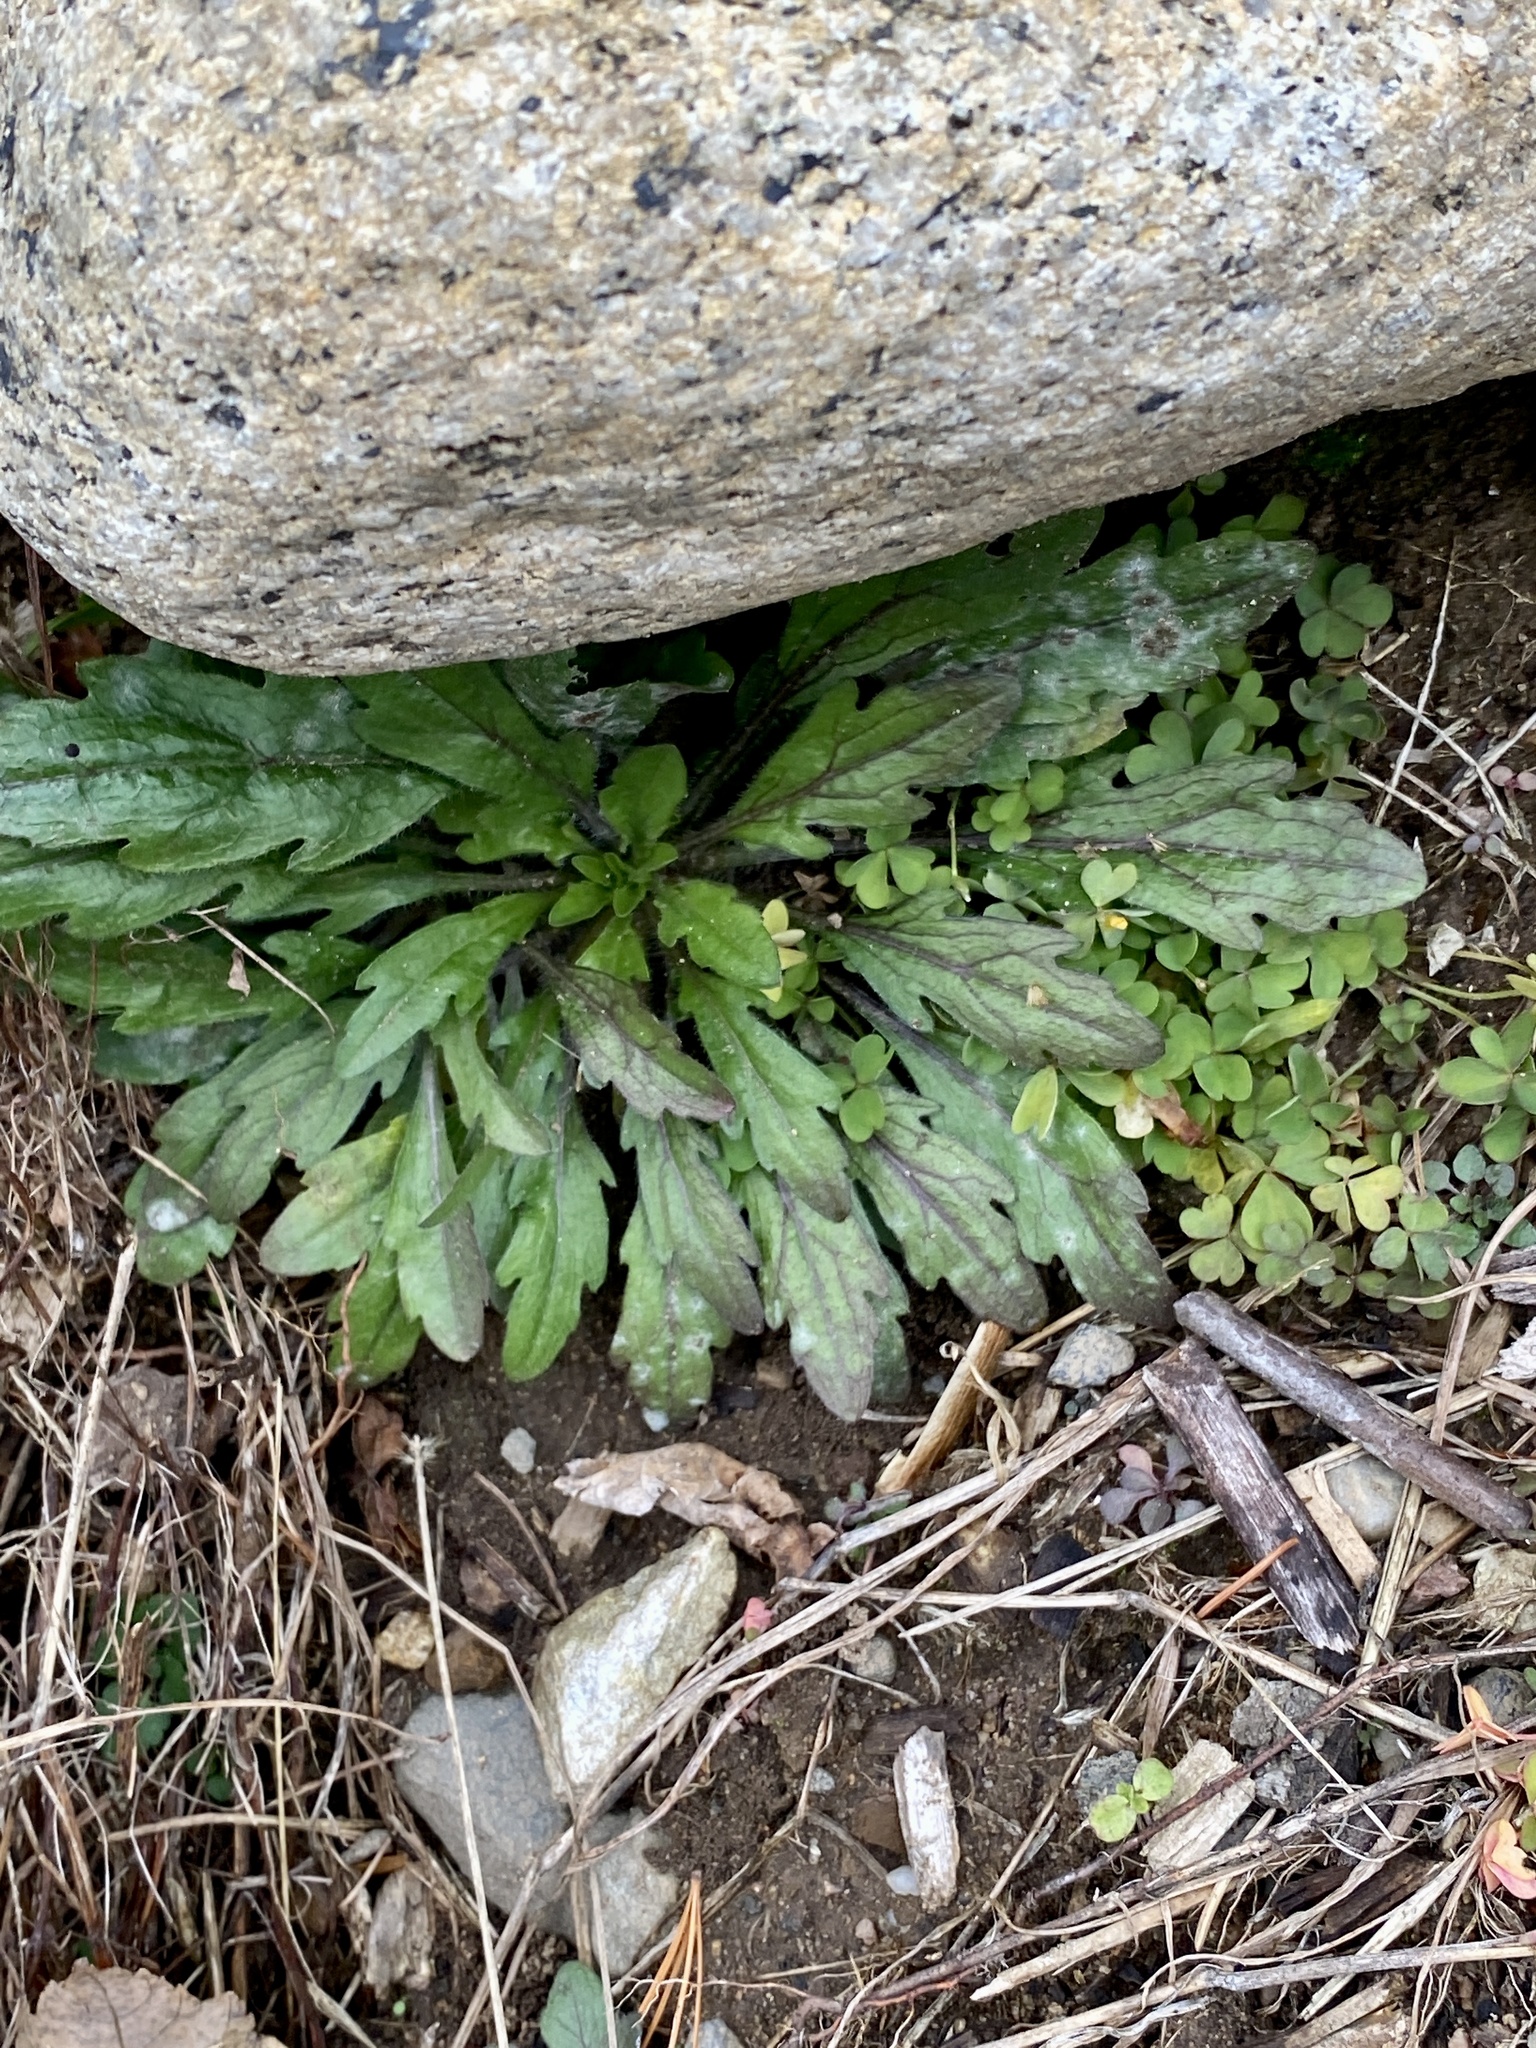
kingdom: Plantae
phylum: Tracheophyta
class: Magnoliopsida
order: Asterales
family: Asteraceae
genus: Erigeron
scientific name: Erigeron canadensis
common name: Canadian fleabane
